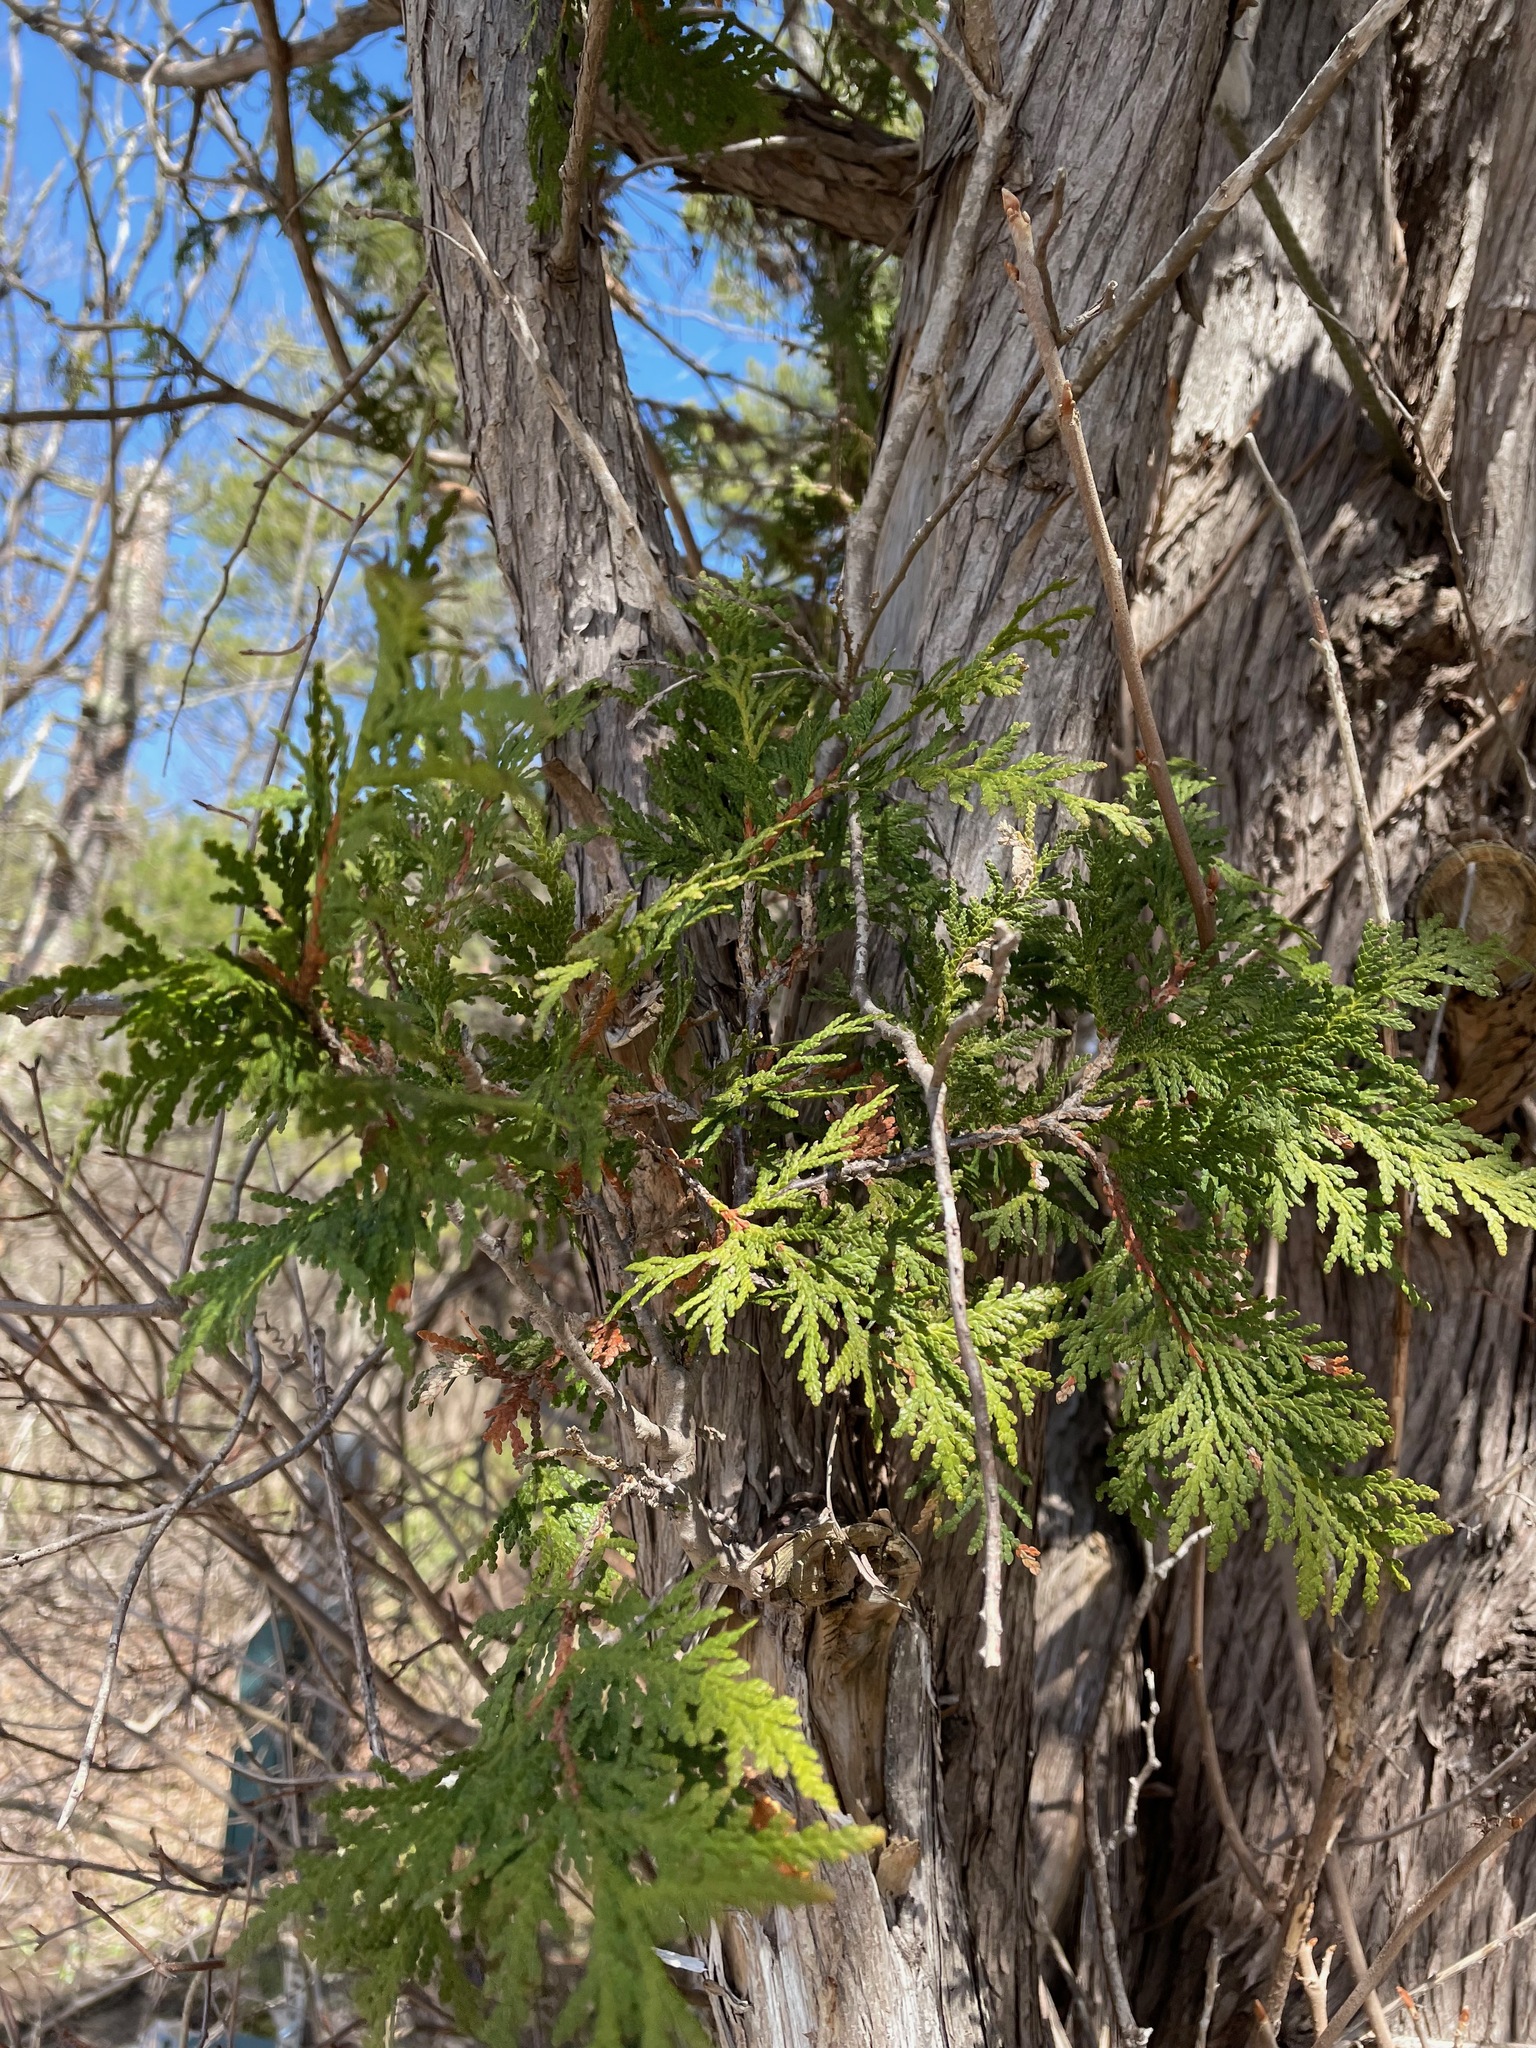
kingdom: Plantae
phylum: Tracheophyta
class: Pinopsida
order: Pinales
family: Cupressaceae
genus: Thuja
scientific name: Thuja occidentalis
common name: Northern white-cedar
